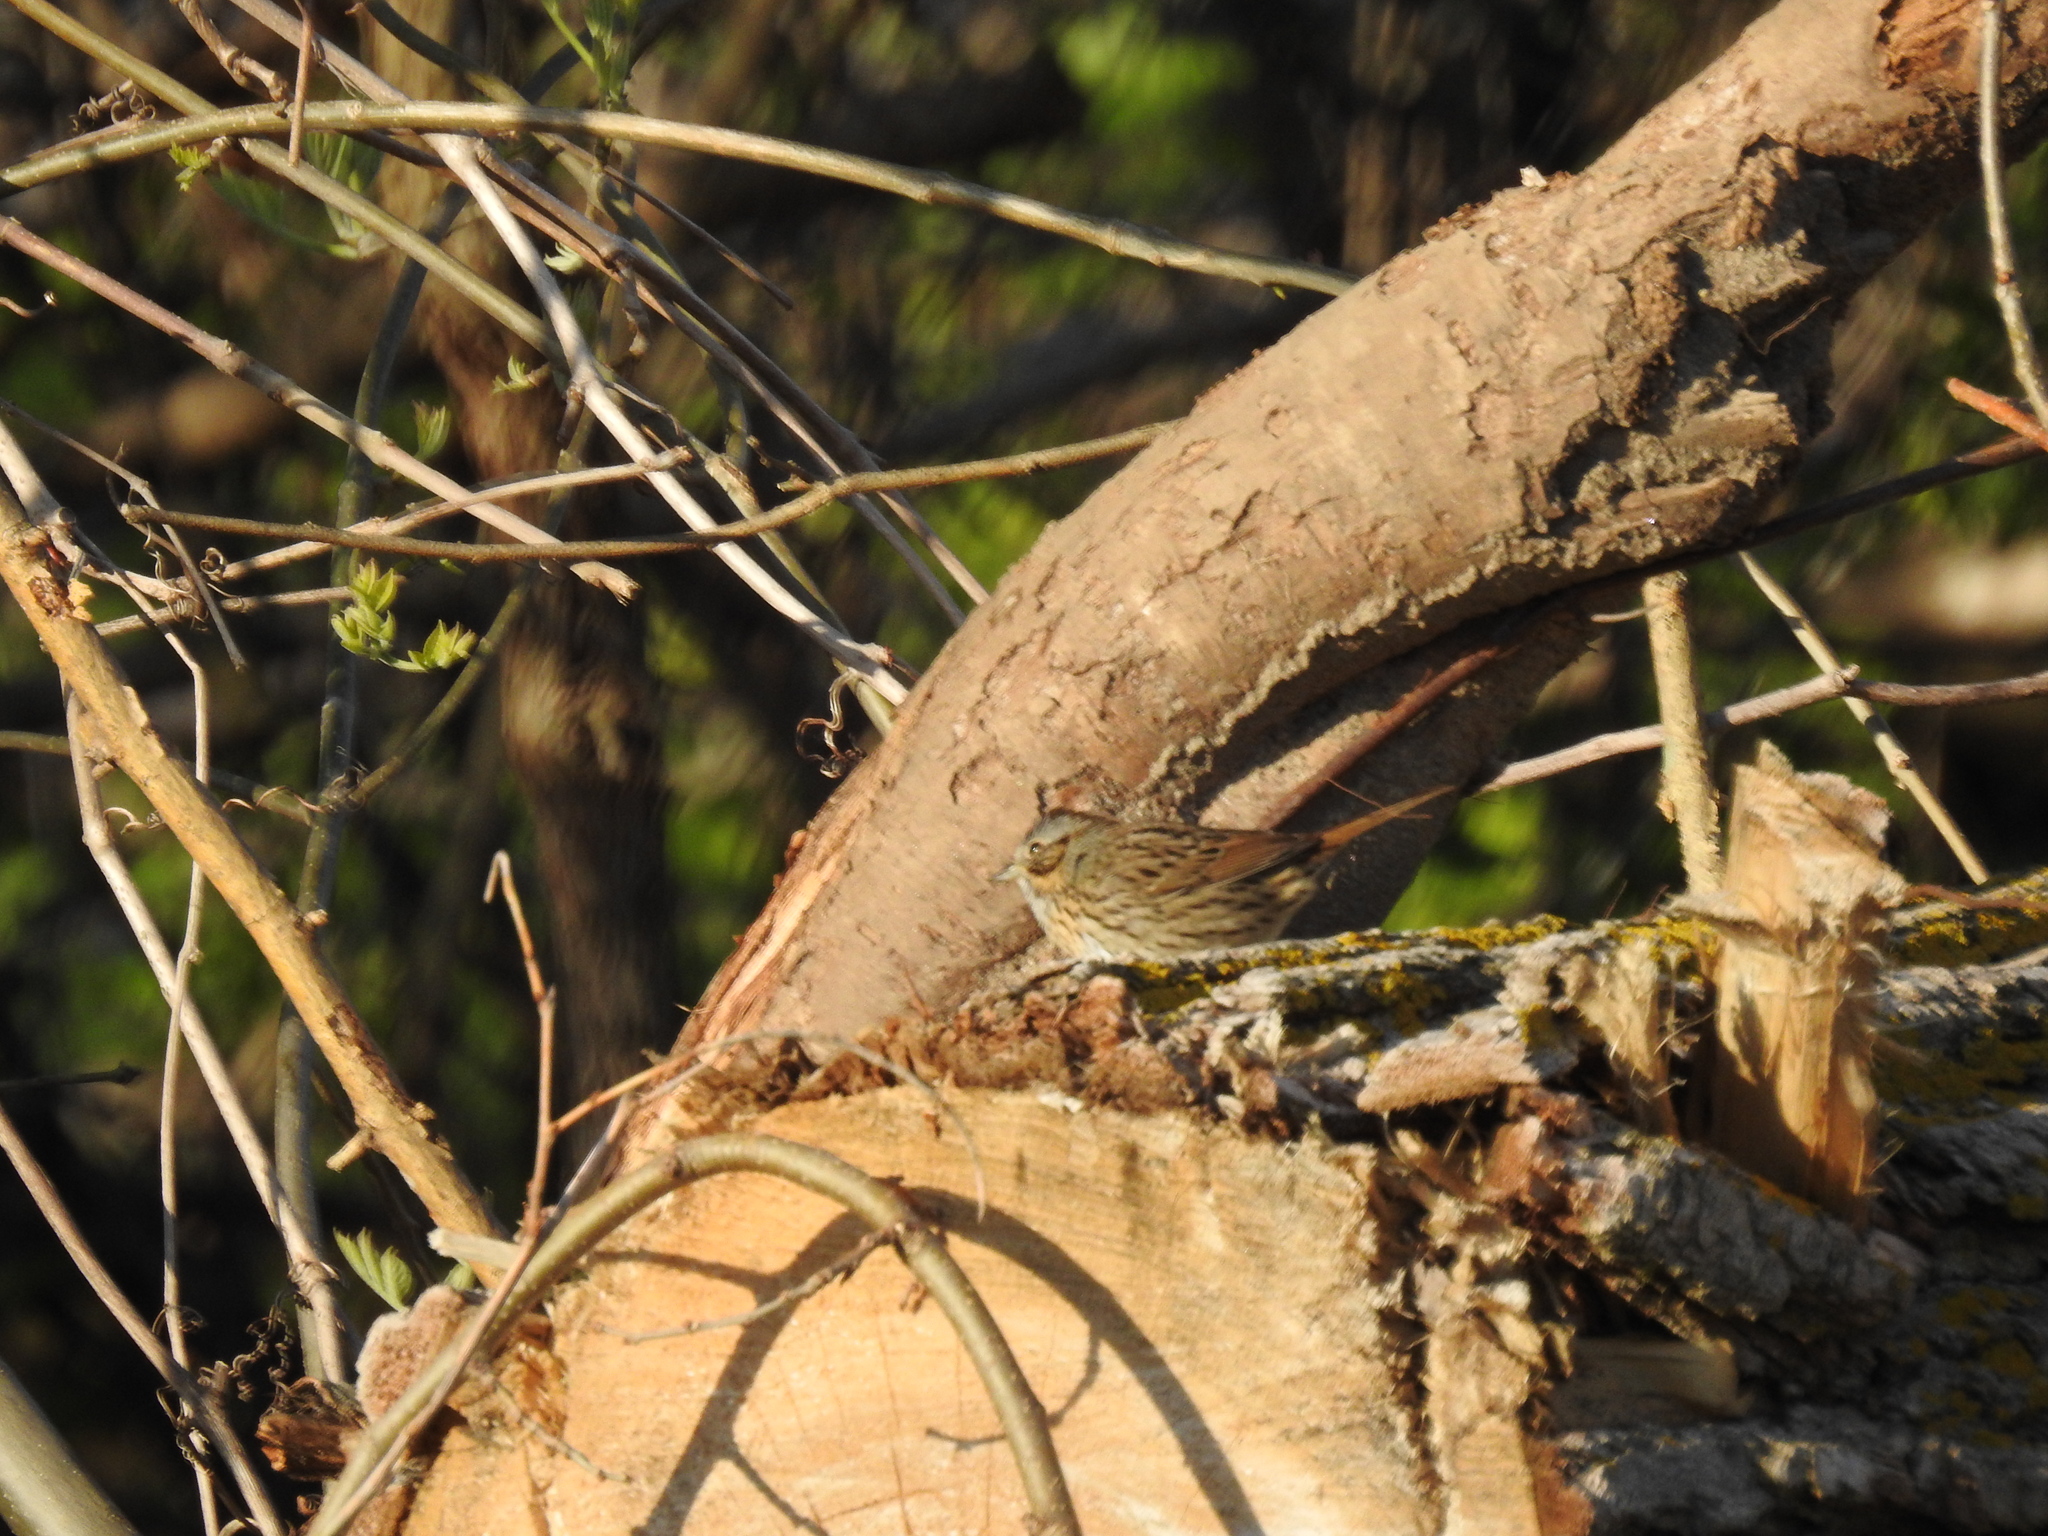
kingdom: Animalia
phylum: Chordata
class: Aves
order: Passeriformes
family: Passerellidae
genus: Melospiza
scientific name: Melospiza lincolnii
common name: Lincoln's sparrow
